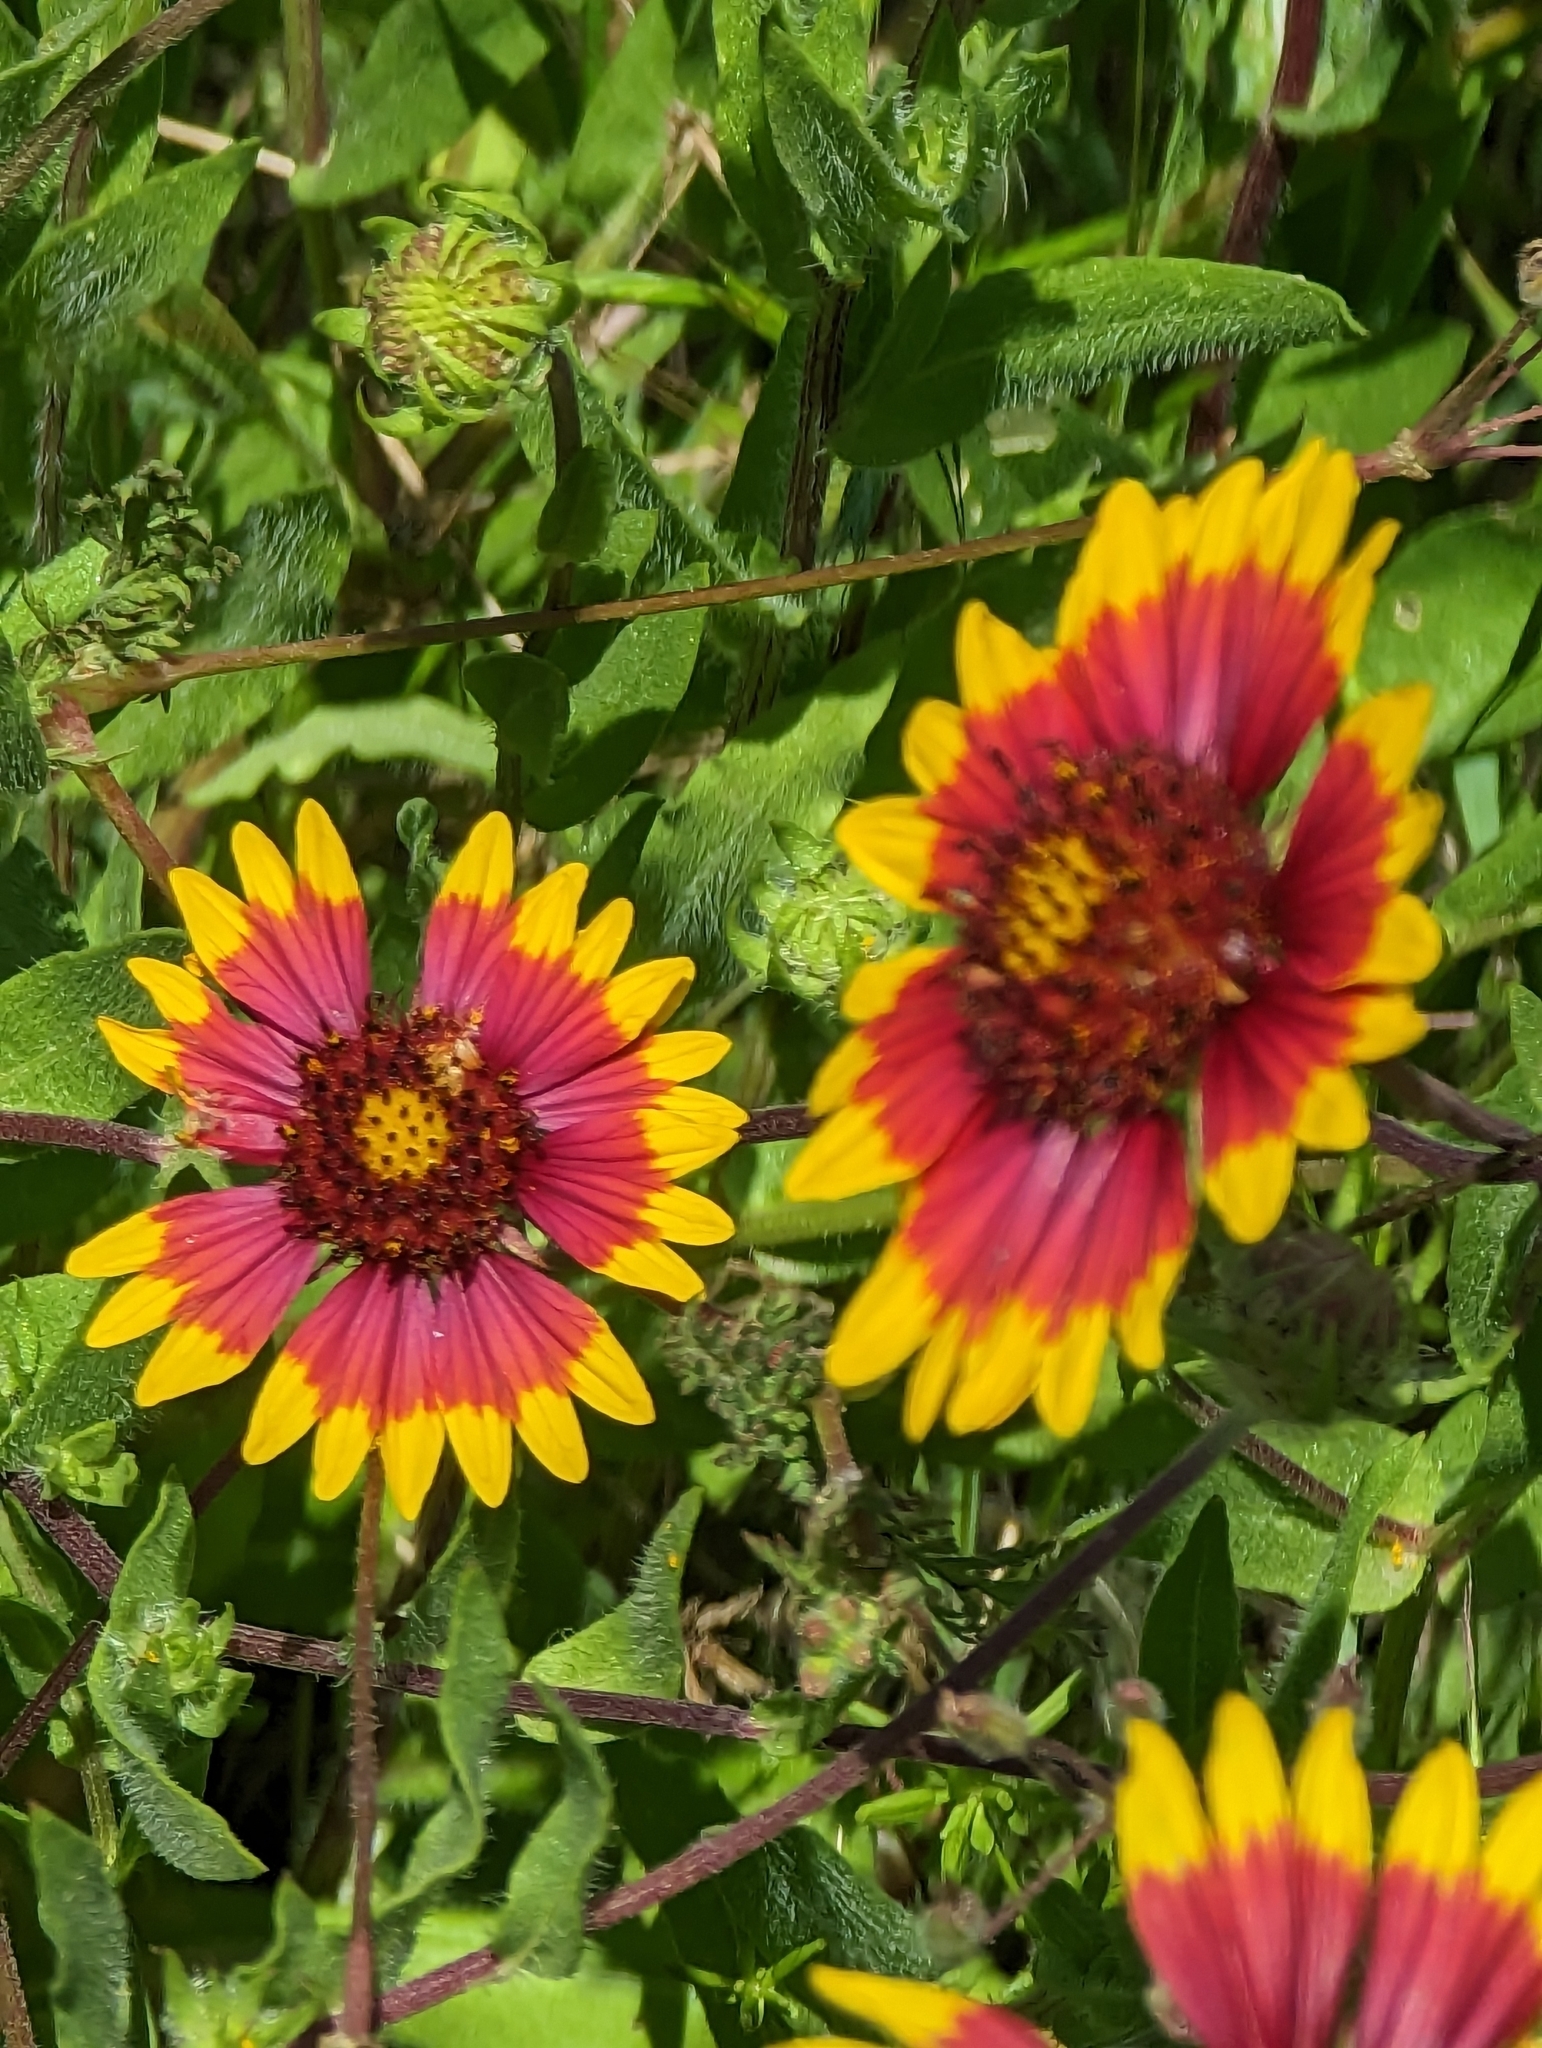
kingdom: Plantae
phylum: Tracheophyta
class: Magnoliopsida
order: Asterales
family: Asteraceae
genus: Gaillardia
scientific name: Gaillardia pulchella
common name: Firewheel
